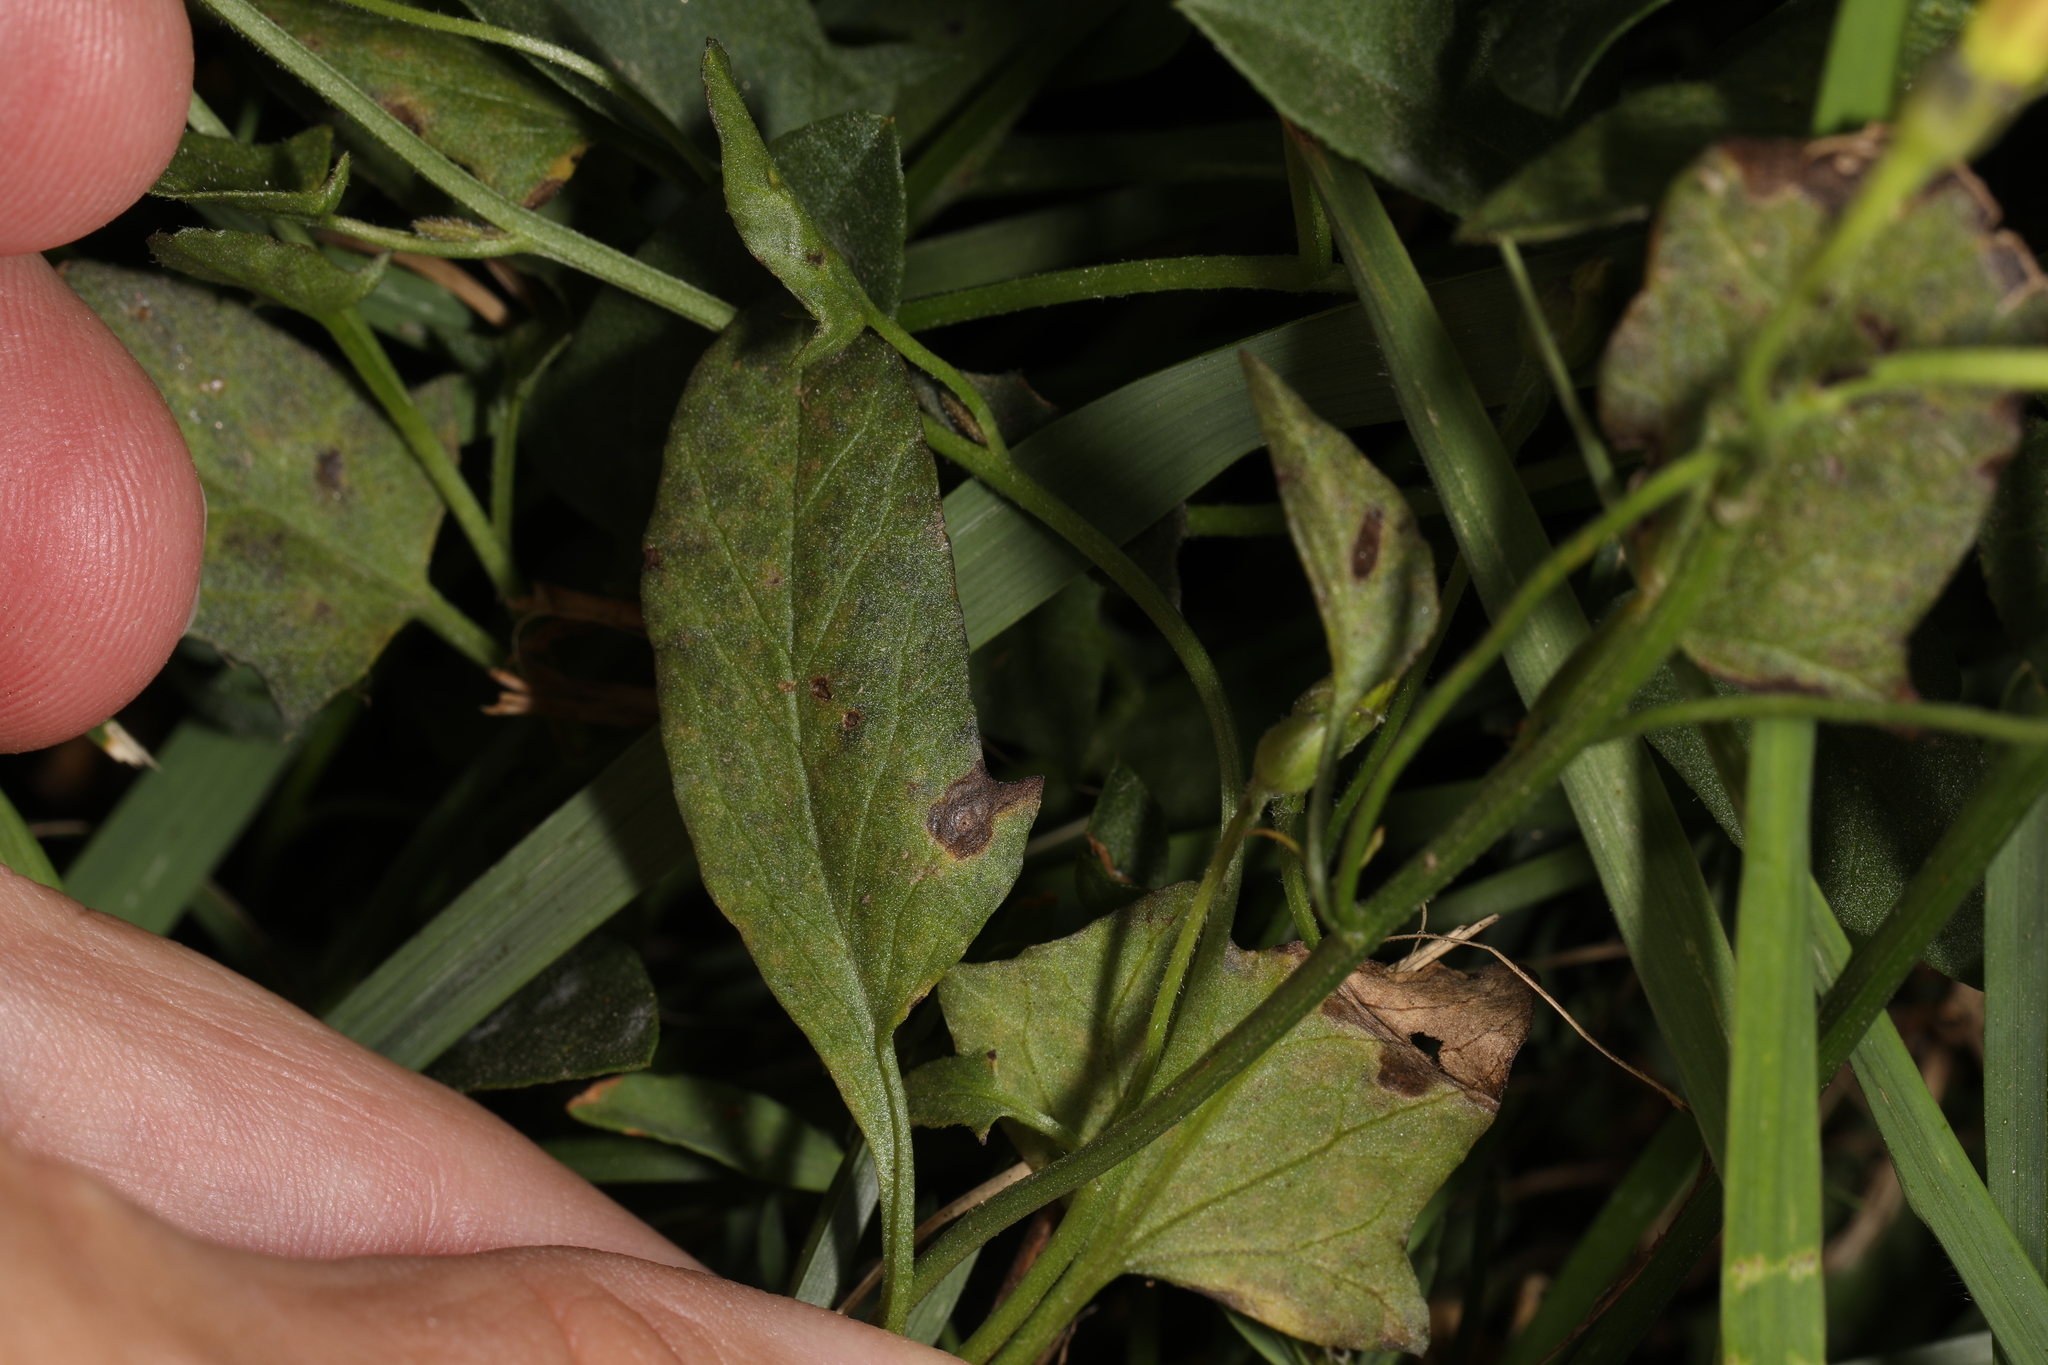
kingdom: Plantae
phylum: Tracheophyta
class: Magnoliopsida
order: Solanales
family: Convolvulaceae
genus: Convolvulus
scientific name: Convolvulus arvensis
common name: Field bindweed
